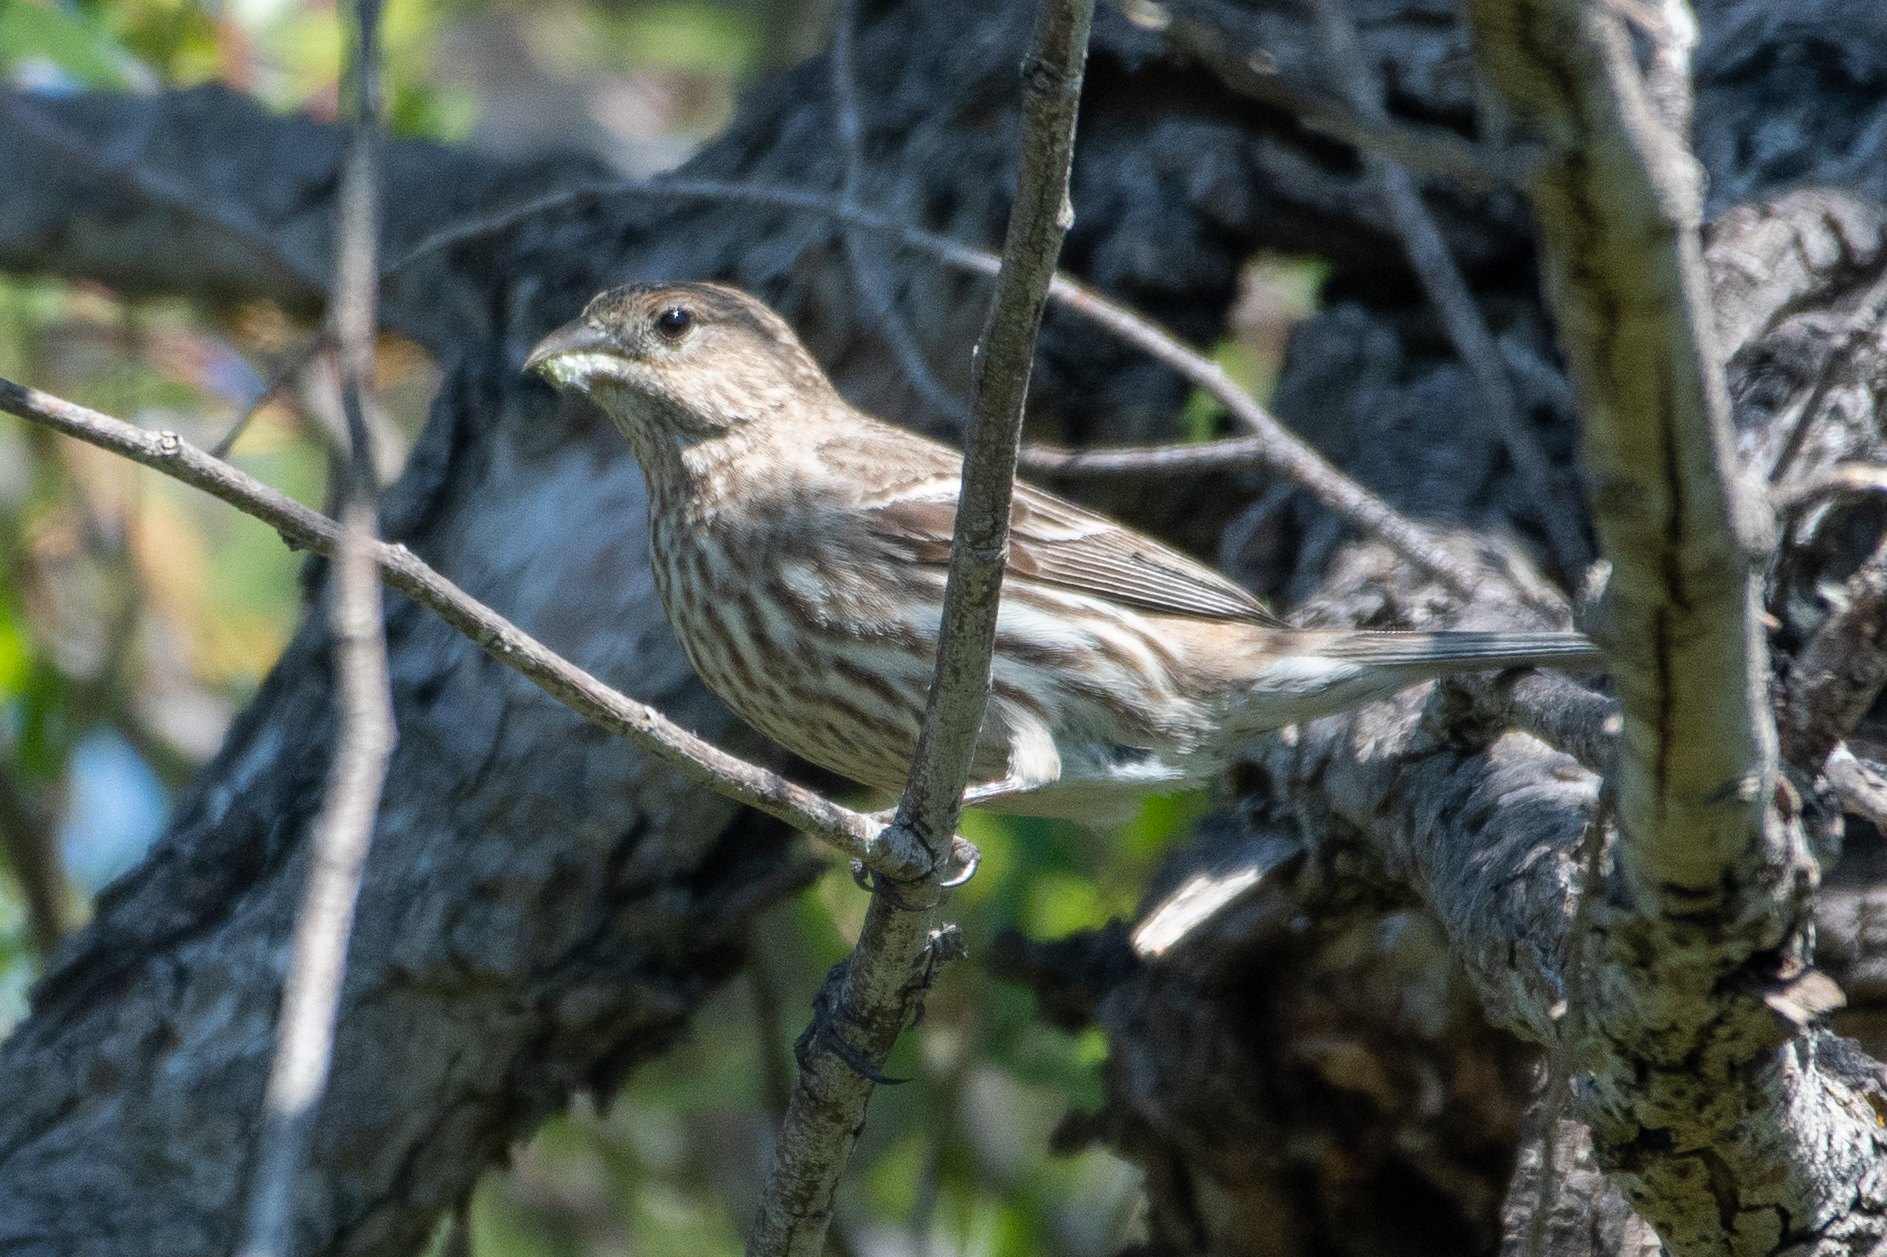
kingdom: Animalia
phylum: Chordata
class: Aves
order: Passeriformes
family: Fringillidae
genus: Haemorhous
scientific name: Haemorhous mexicanus
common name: House finch
